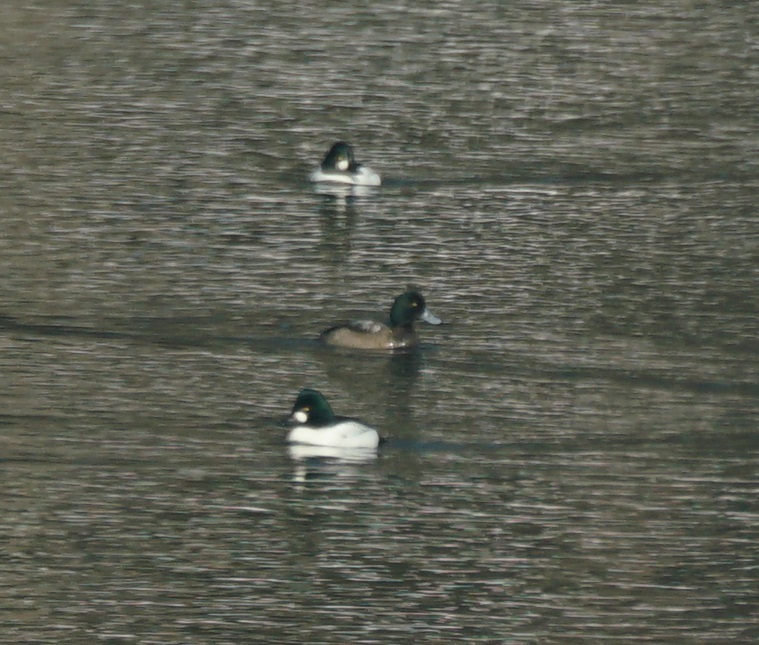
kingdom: Animalia
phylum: Chordata
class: Aves
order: Anseriformes
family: Anatidae
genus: Aythya
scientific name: Aythya marila
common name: Greater scaup
